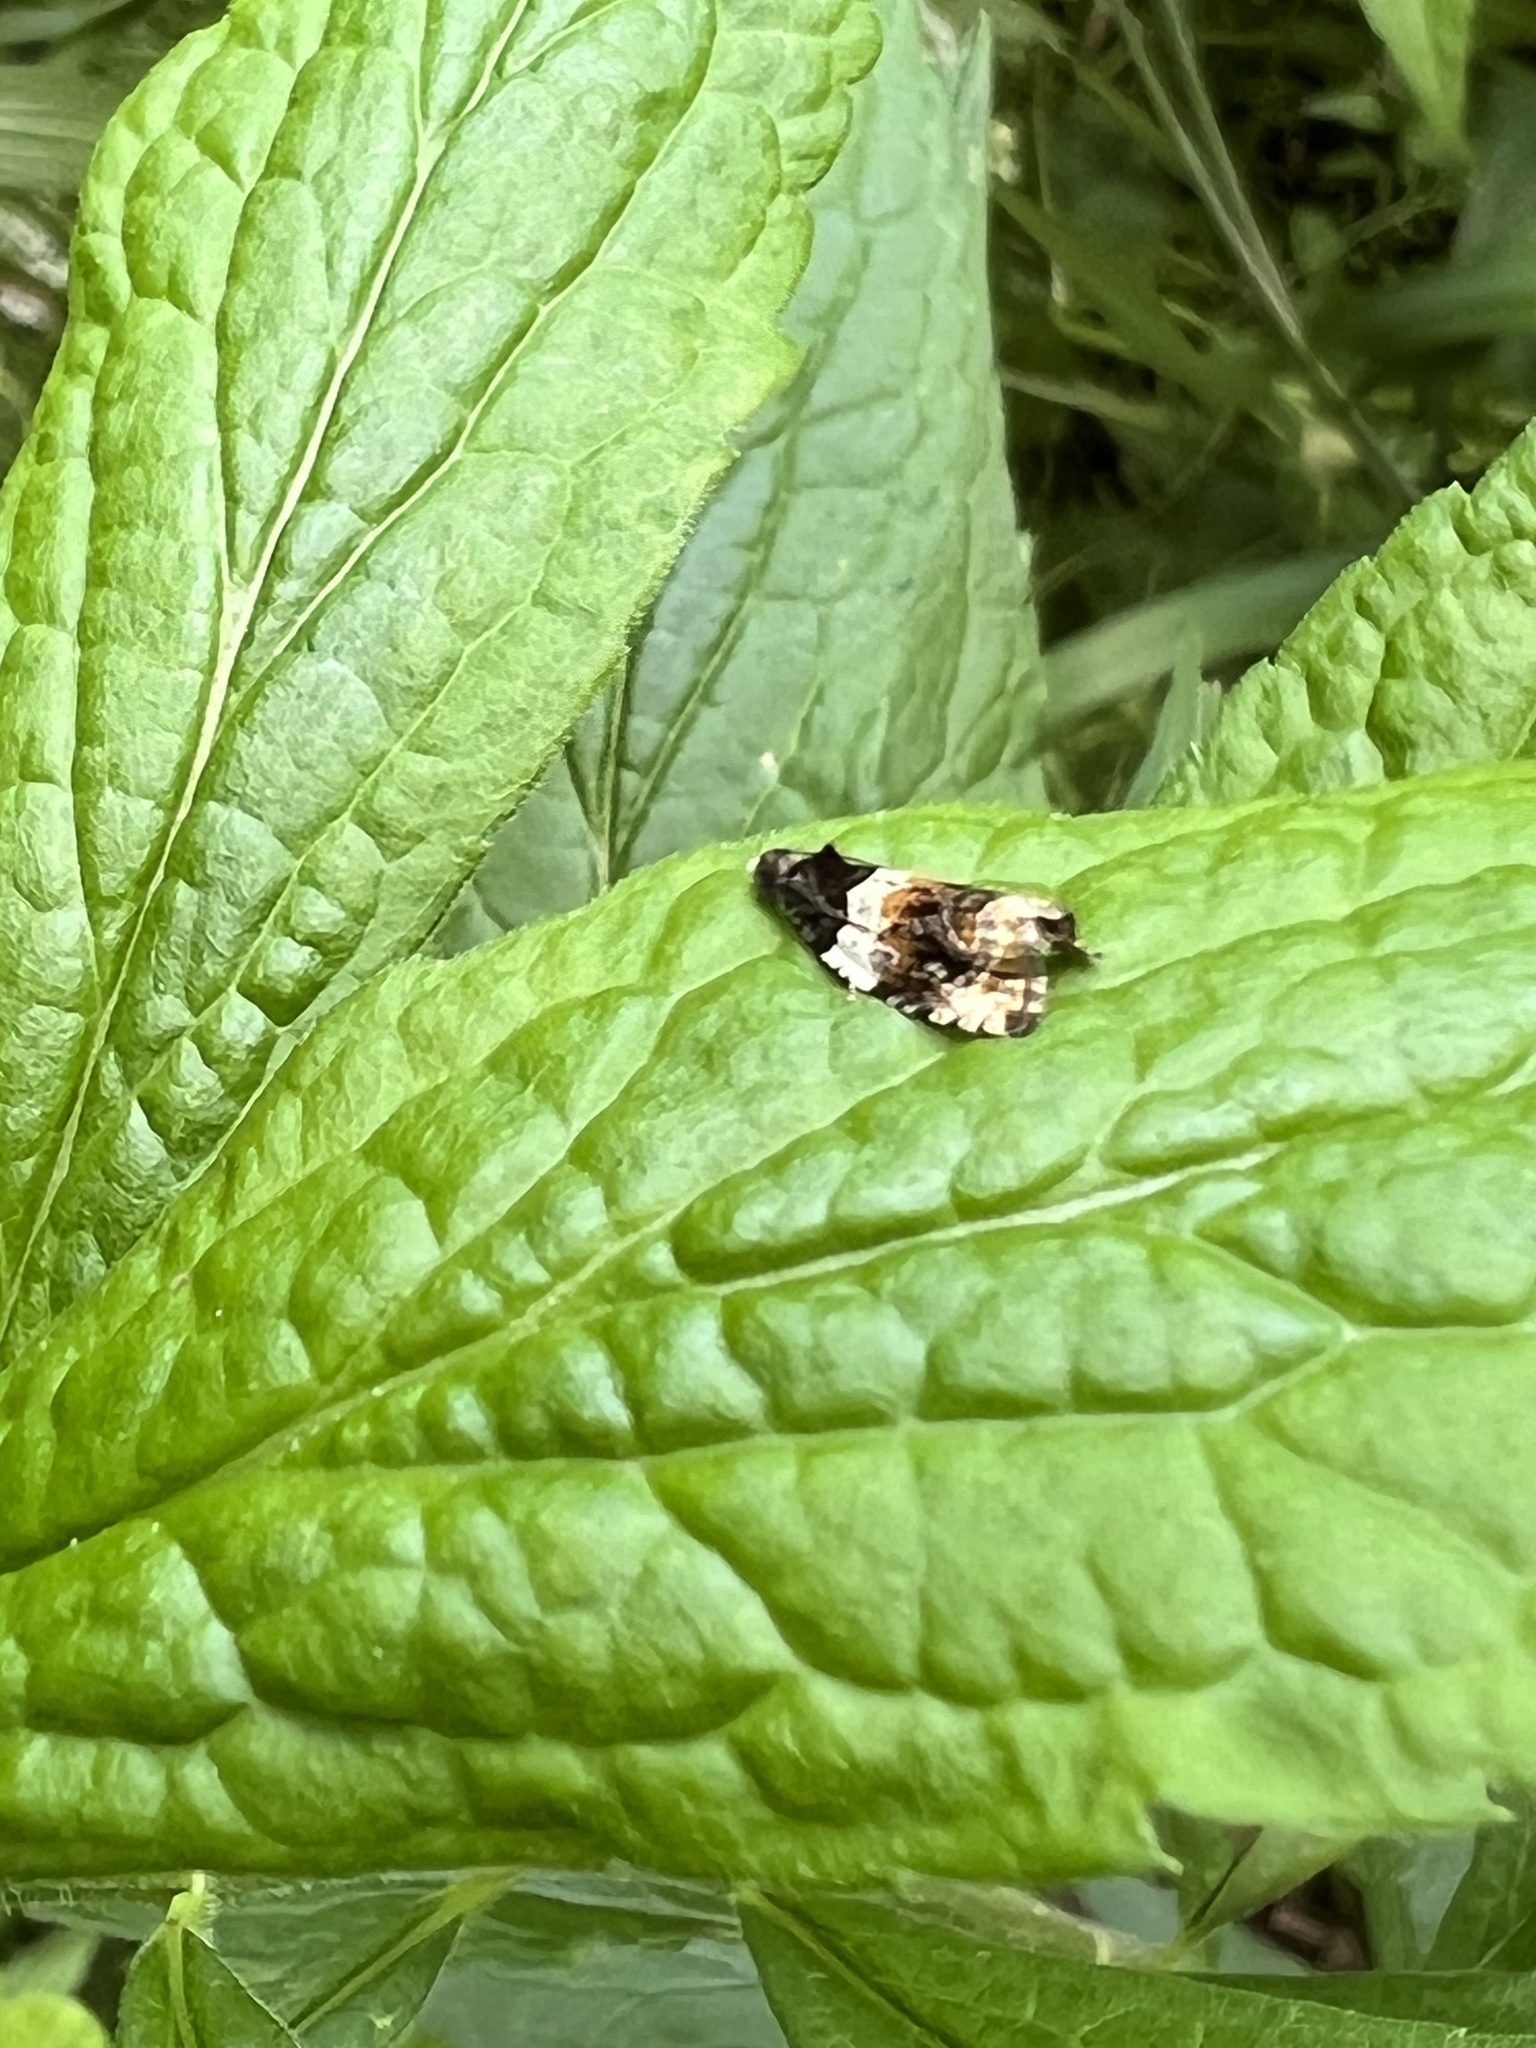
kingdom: Animalia
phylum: Arthropoda
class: Insecta
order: Lepidoptera
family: Tortricidae
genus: Olethreutes
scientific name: Olethreutes fasciatana
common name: Banded olethreutes moth
